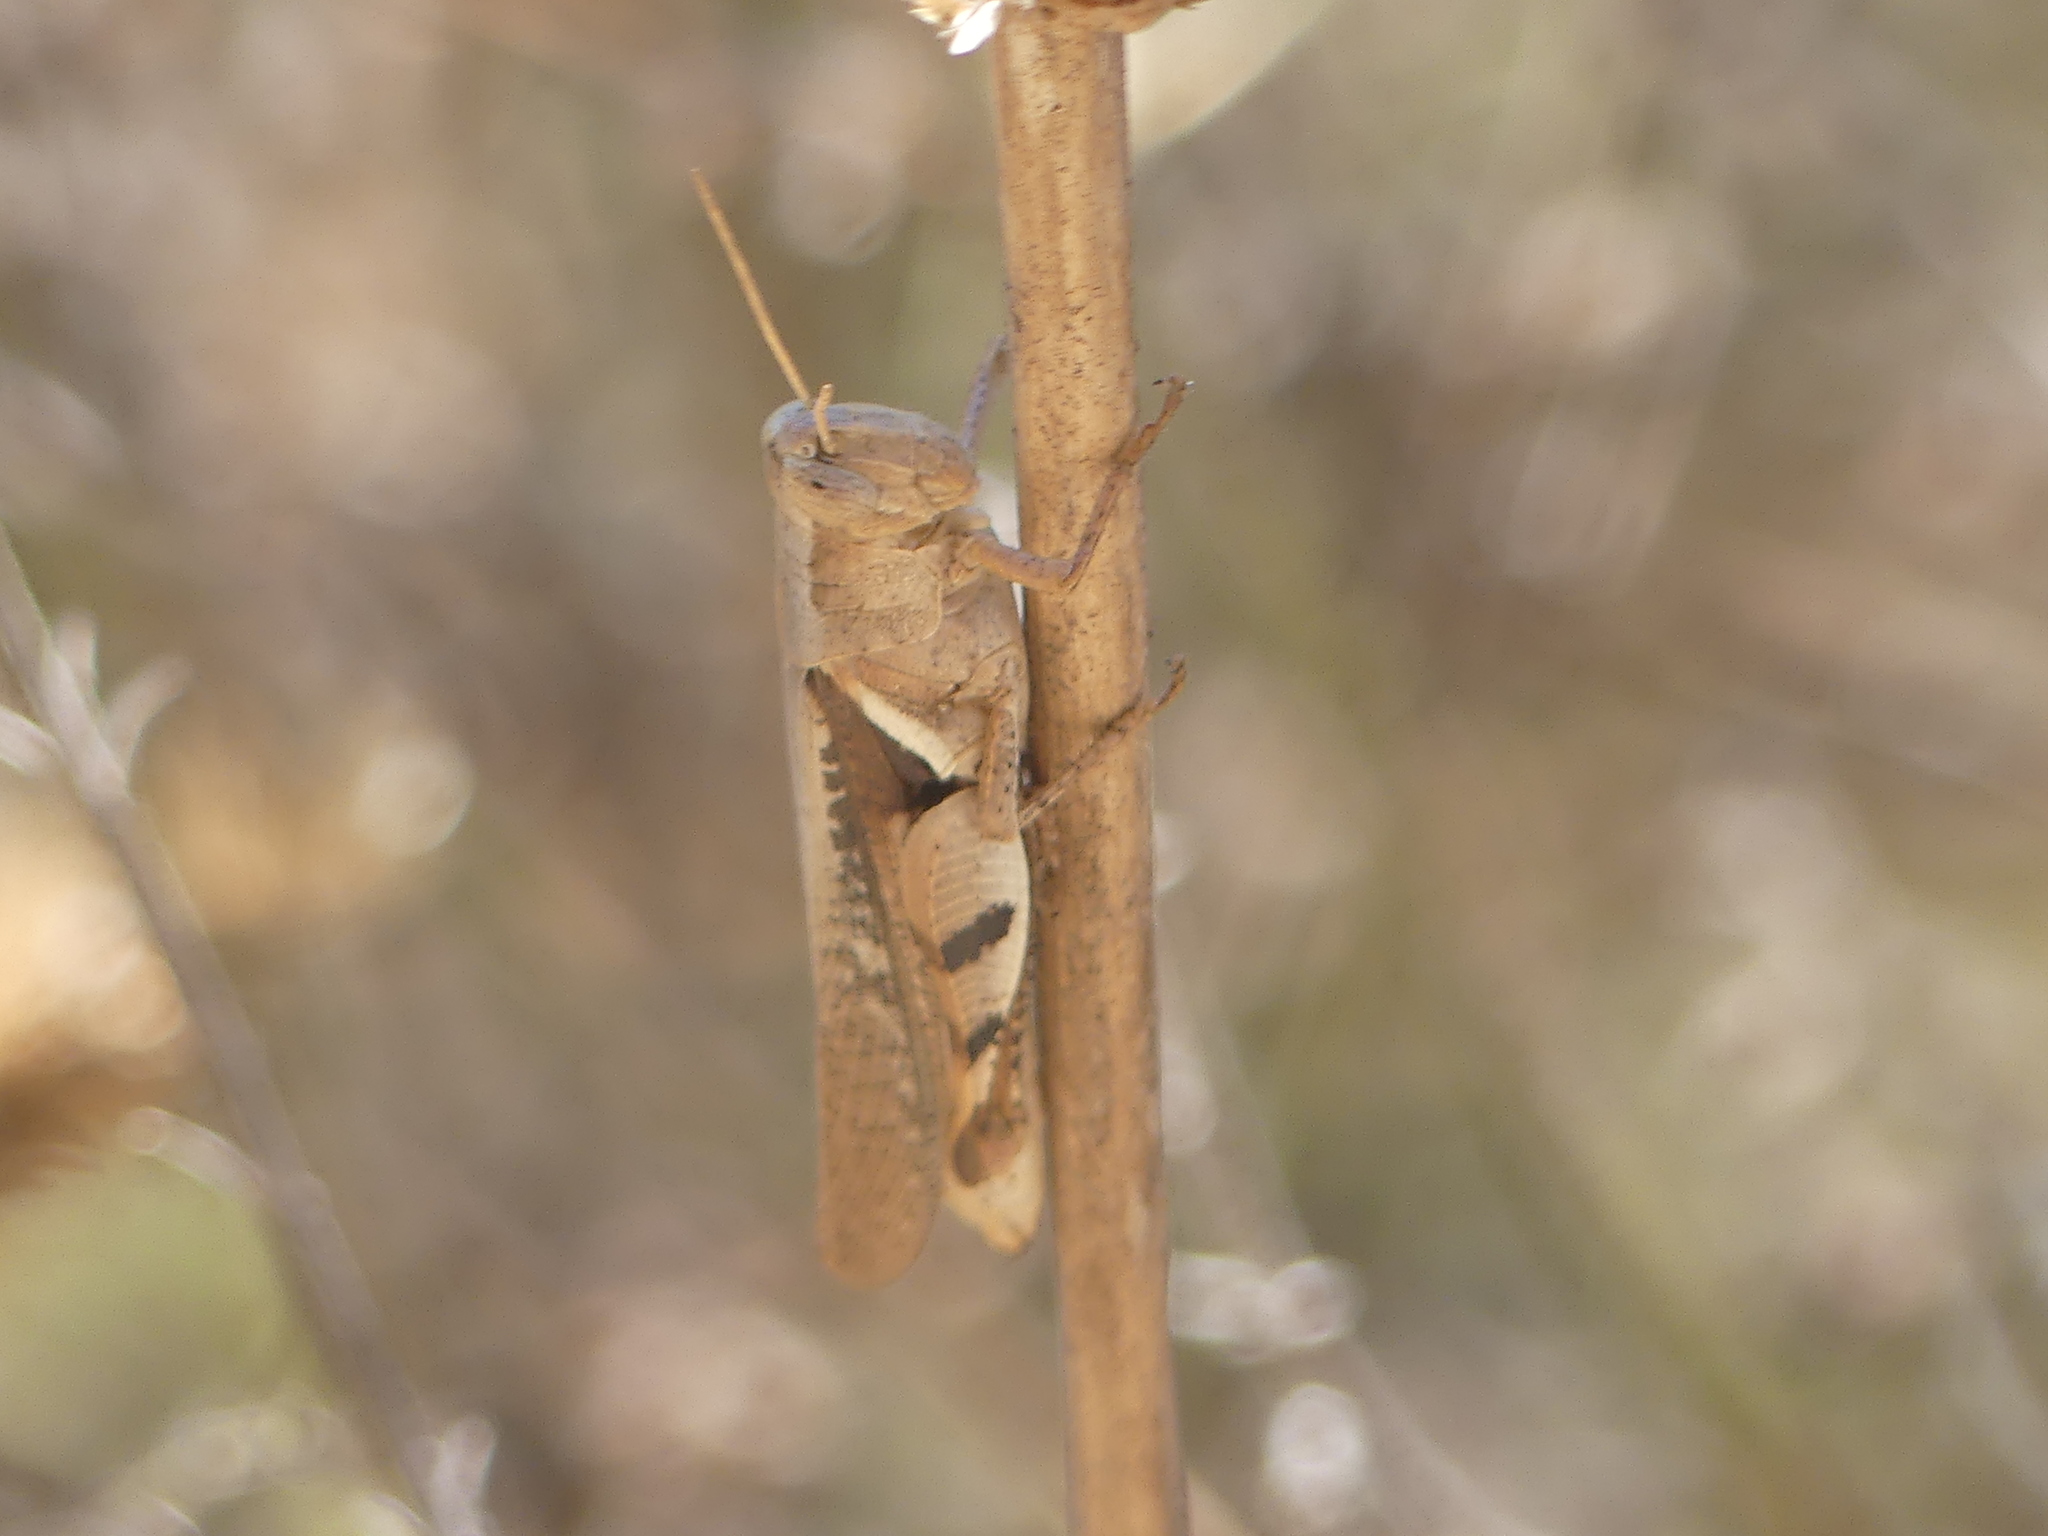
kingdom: Animalia
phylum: Arthropoda
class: Insecta
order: Orthoptera
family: Acrididae
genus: Stenocatantops
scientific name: Stenocatantops angustifrons
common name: Common tropical sharptail
